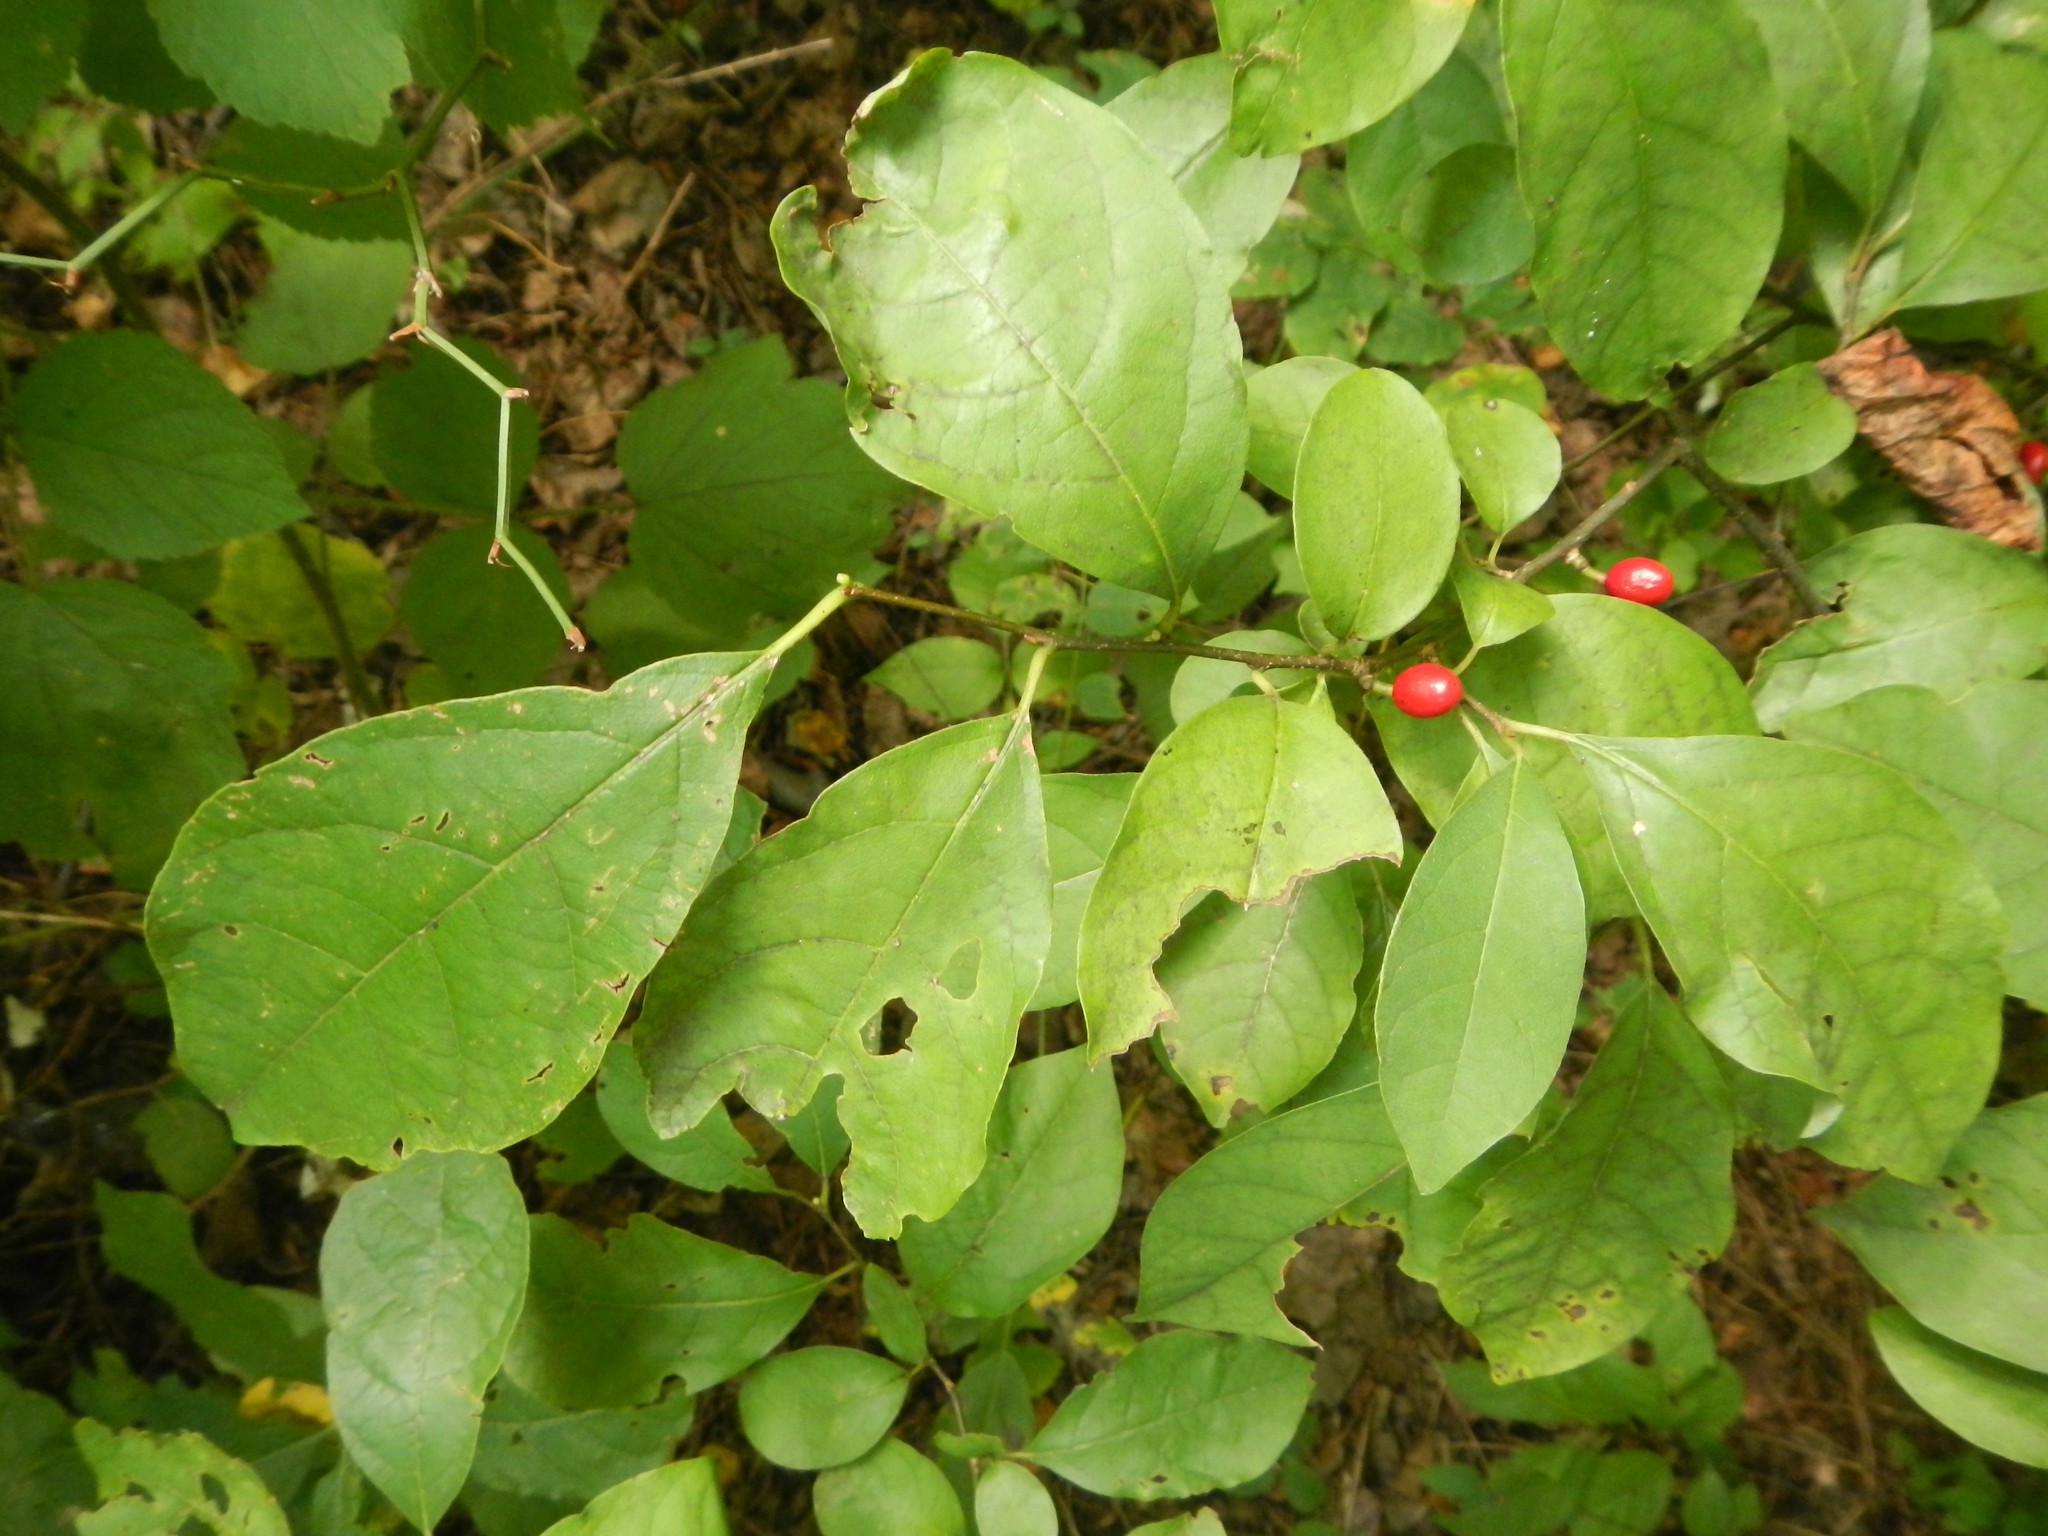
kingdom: Plantae
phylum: Tracheophyta
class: Magnoliopsida
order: Laurales
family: Lauraceae
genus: Lindera
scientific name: Lindera benzoin
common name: Spicebush
